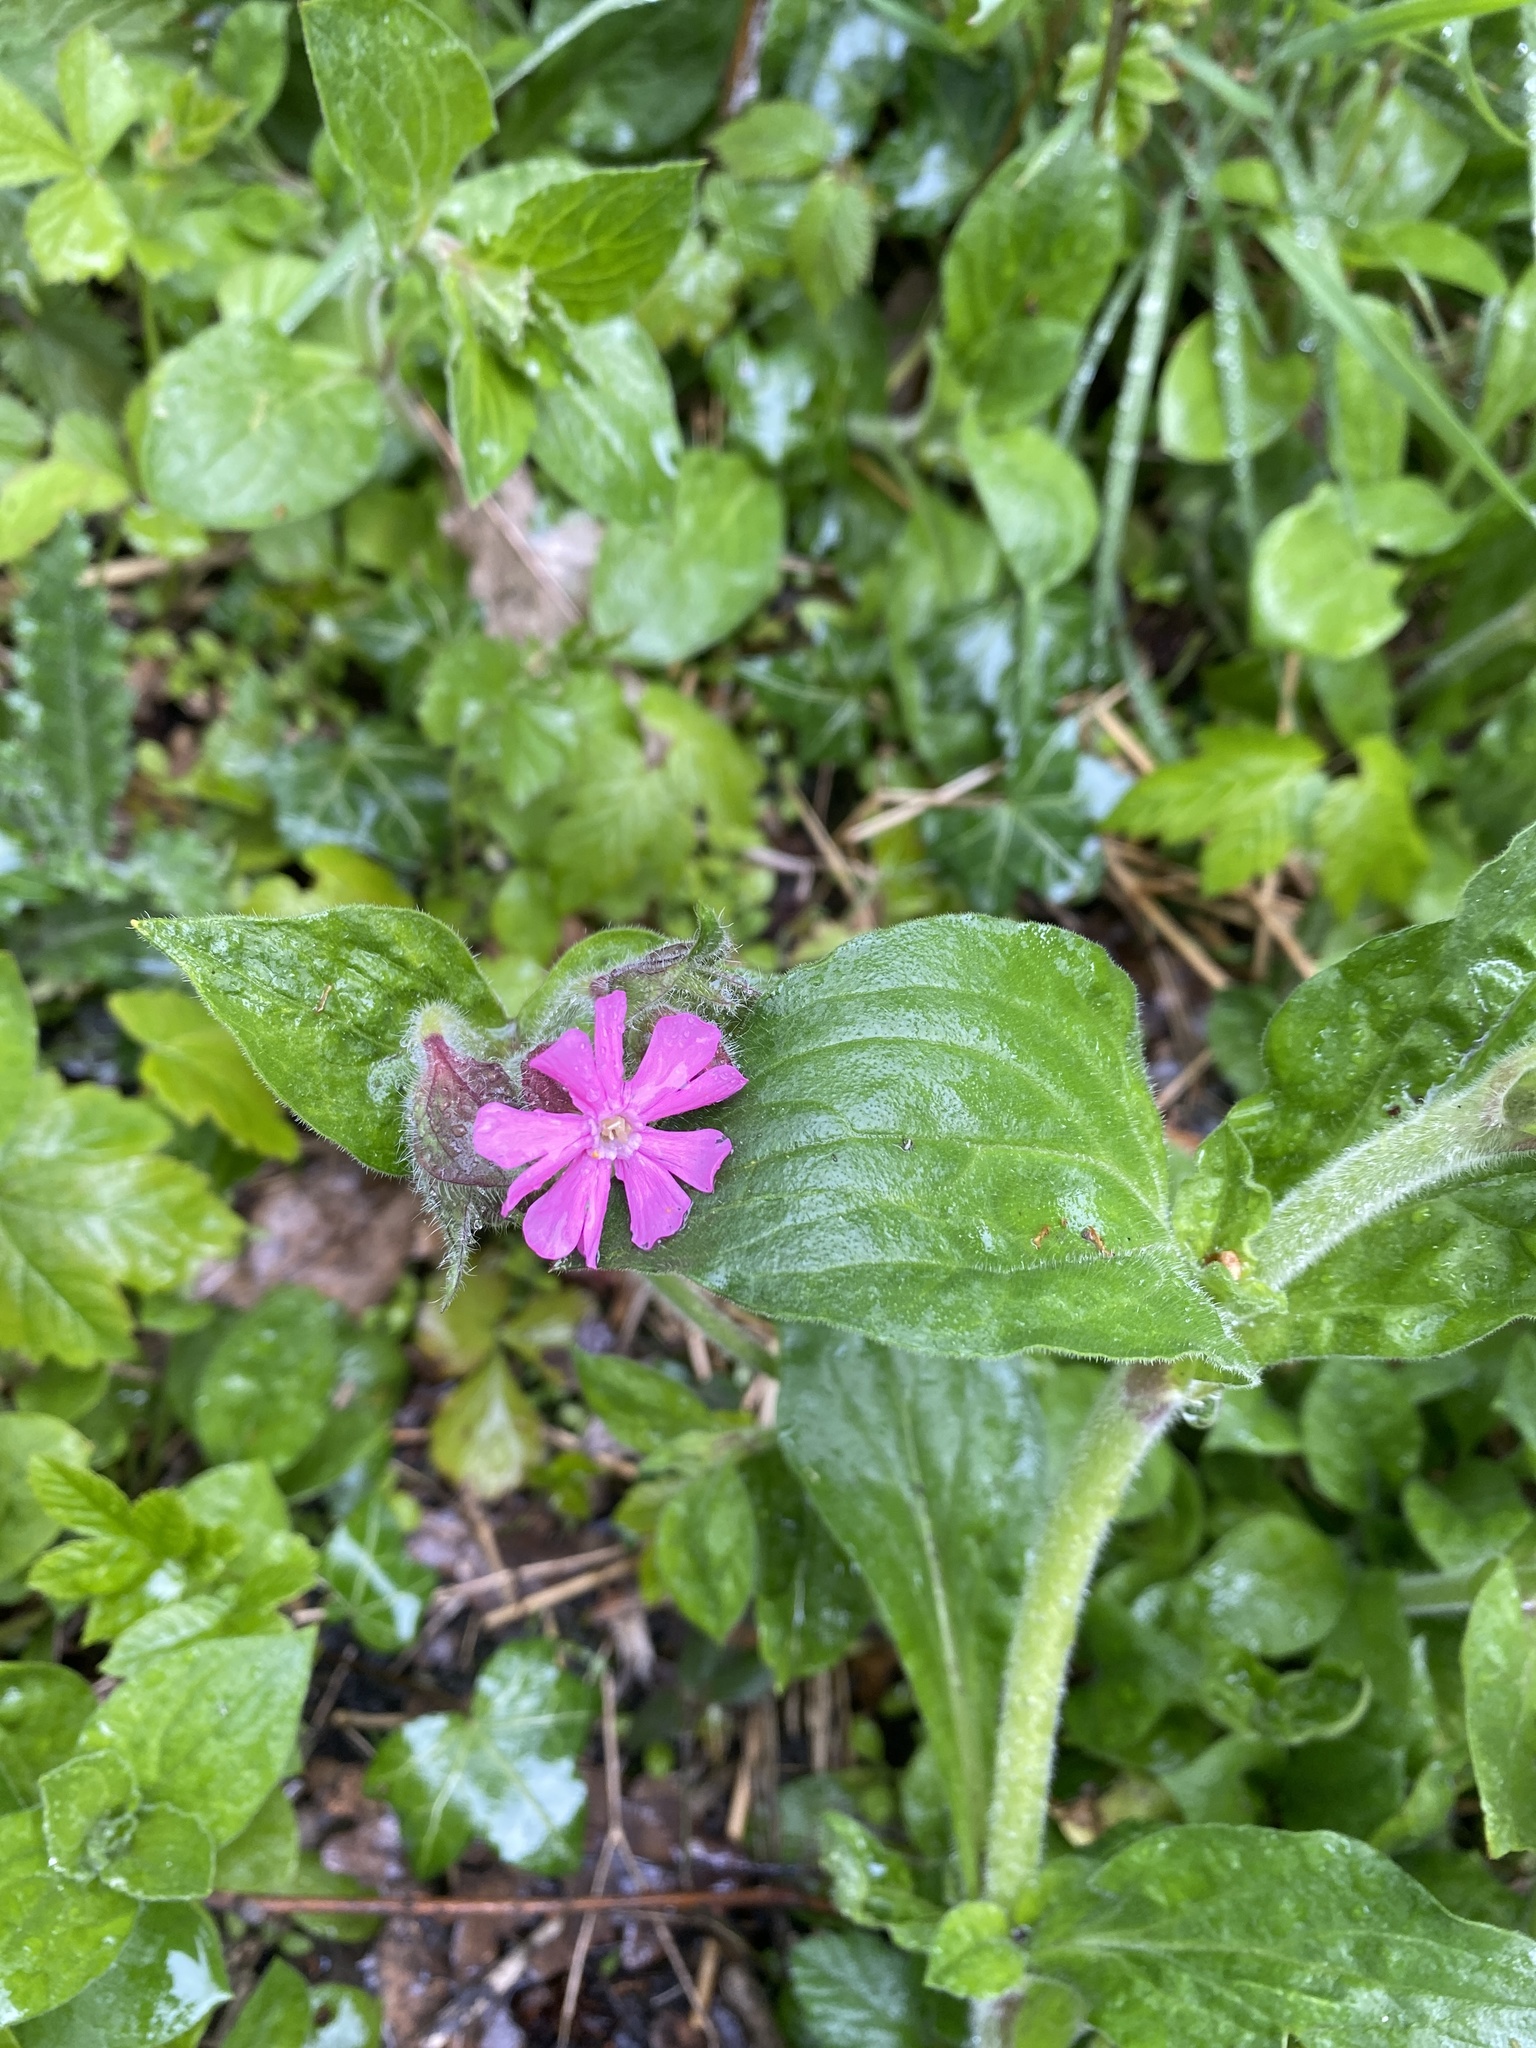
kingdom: Plantae
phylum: Tracheophyta
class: Magnoliopsida
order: Caryophyllales
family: Caryophyllaceae
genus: Silene
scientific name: Silene dioica
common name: Red campion
